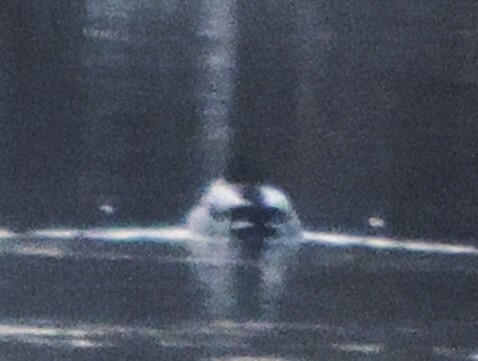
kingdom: Animalia
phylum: Chordata
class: Aves
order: Anseriformes
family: Anatidae
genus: Anas
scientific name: Anas platyrhynchos
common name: Mallard
